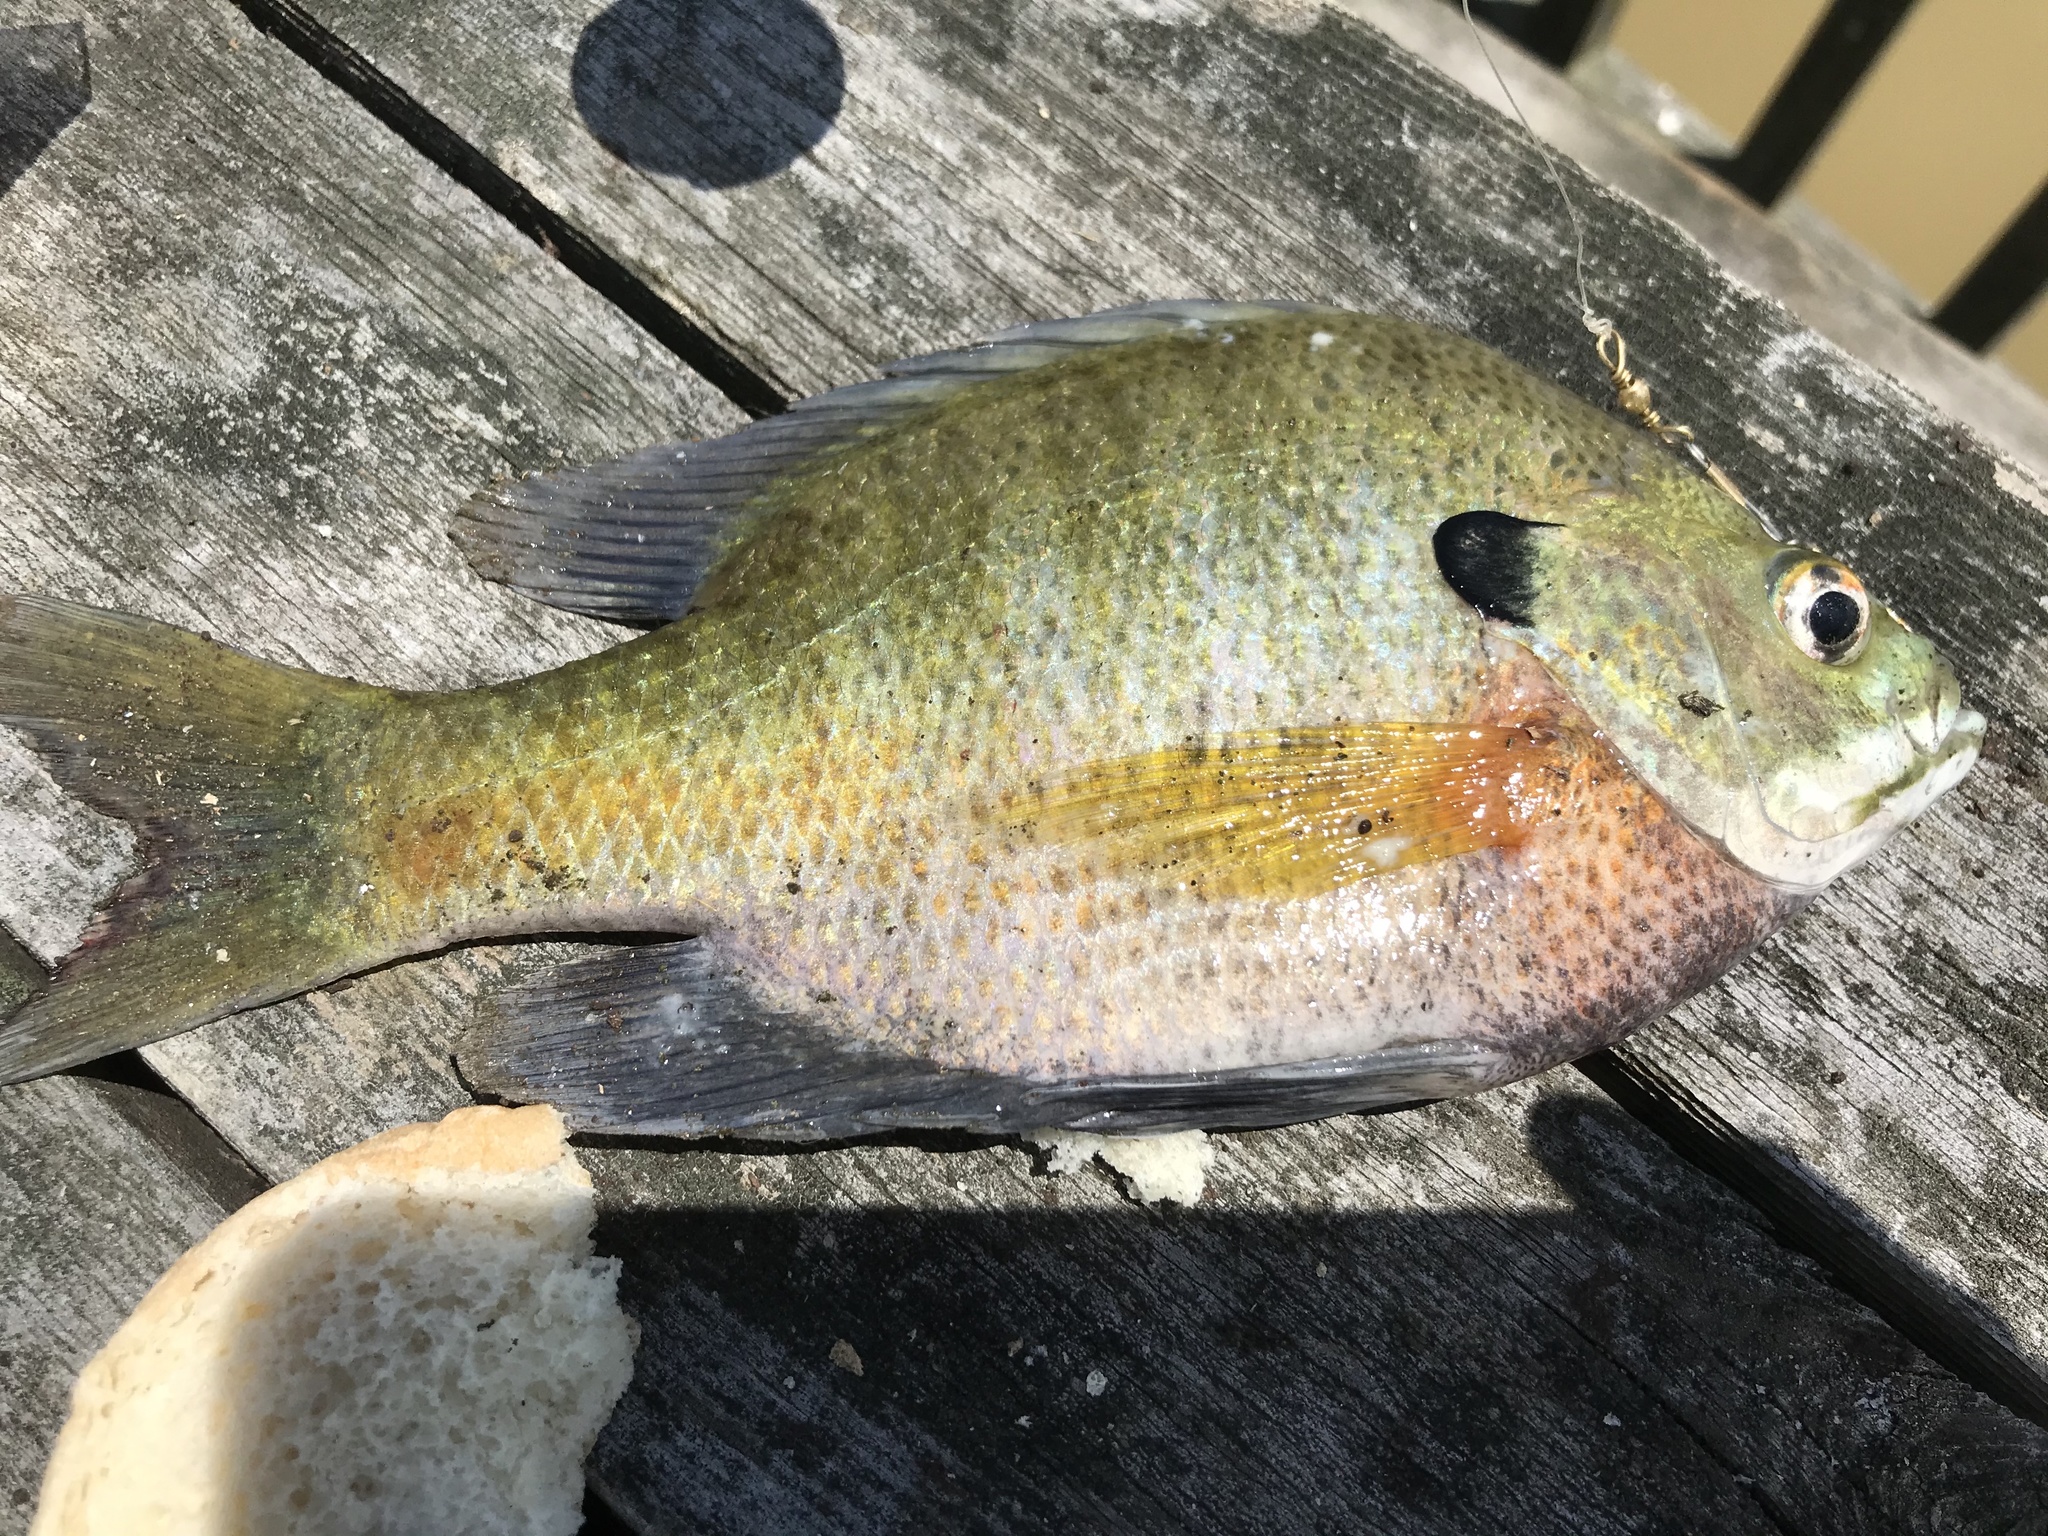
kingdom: Animalia
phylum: Chordata
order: Perciformes
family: Centrarchidae
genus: Lepomis
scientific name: Lepomis macrochirus
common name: Bluegill
